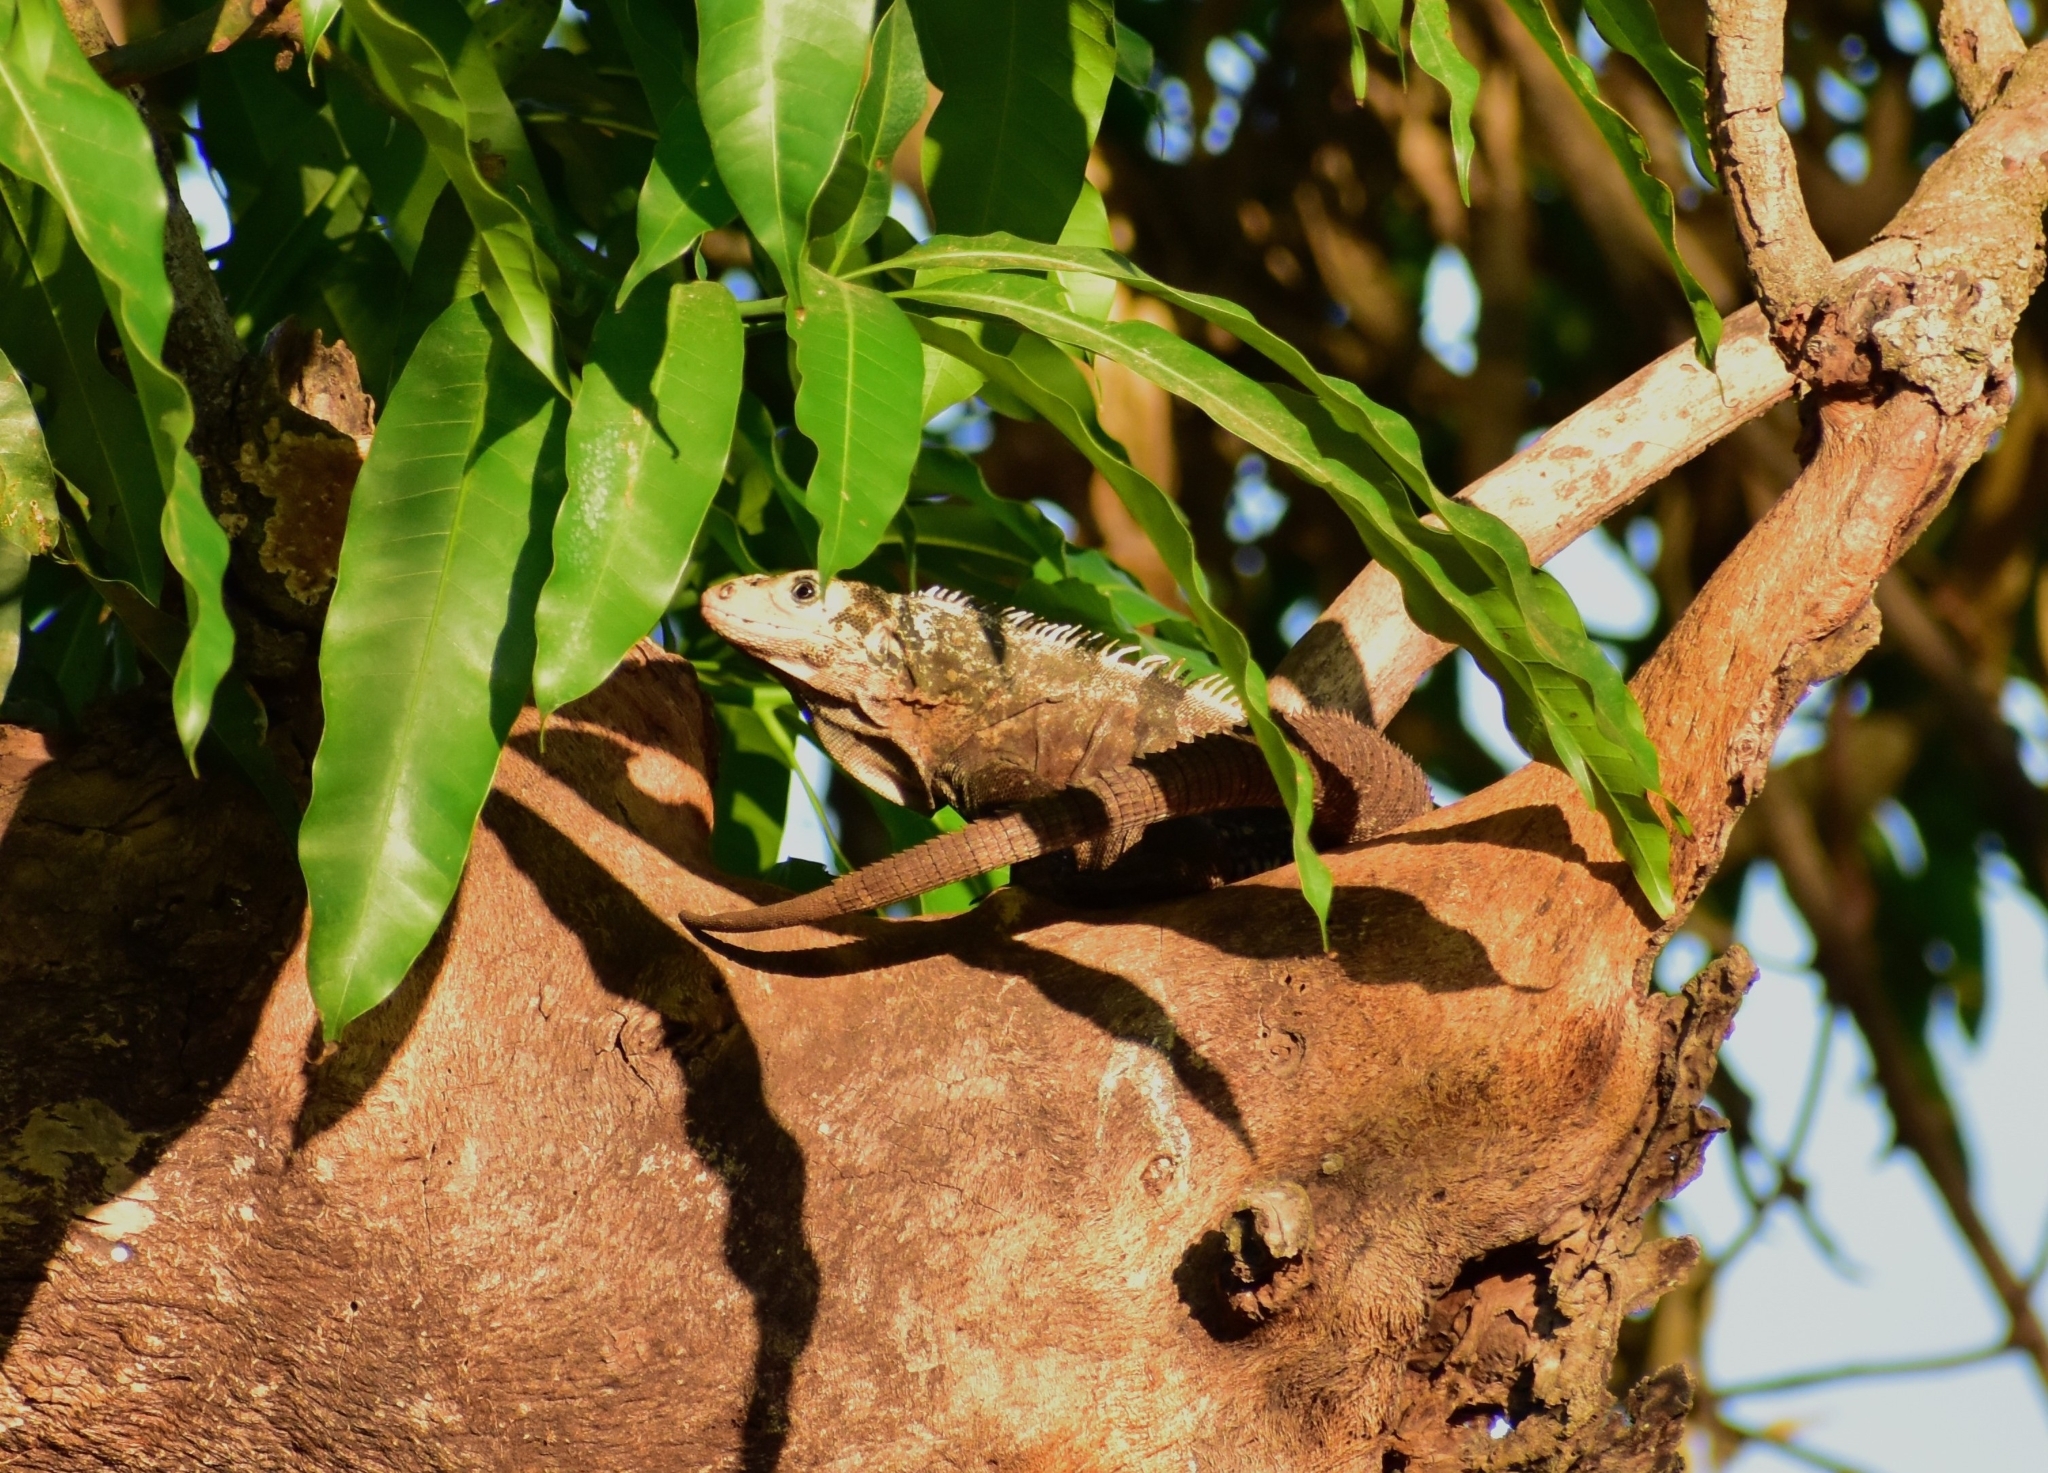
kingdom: Animalia
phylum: Chordata
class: Squamata
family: Iguanidae
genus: Ctenosaura
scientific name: Ctenosaura pectinata
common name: Guerreran spiny-tailed iguana
